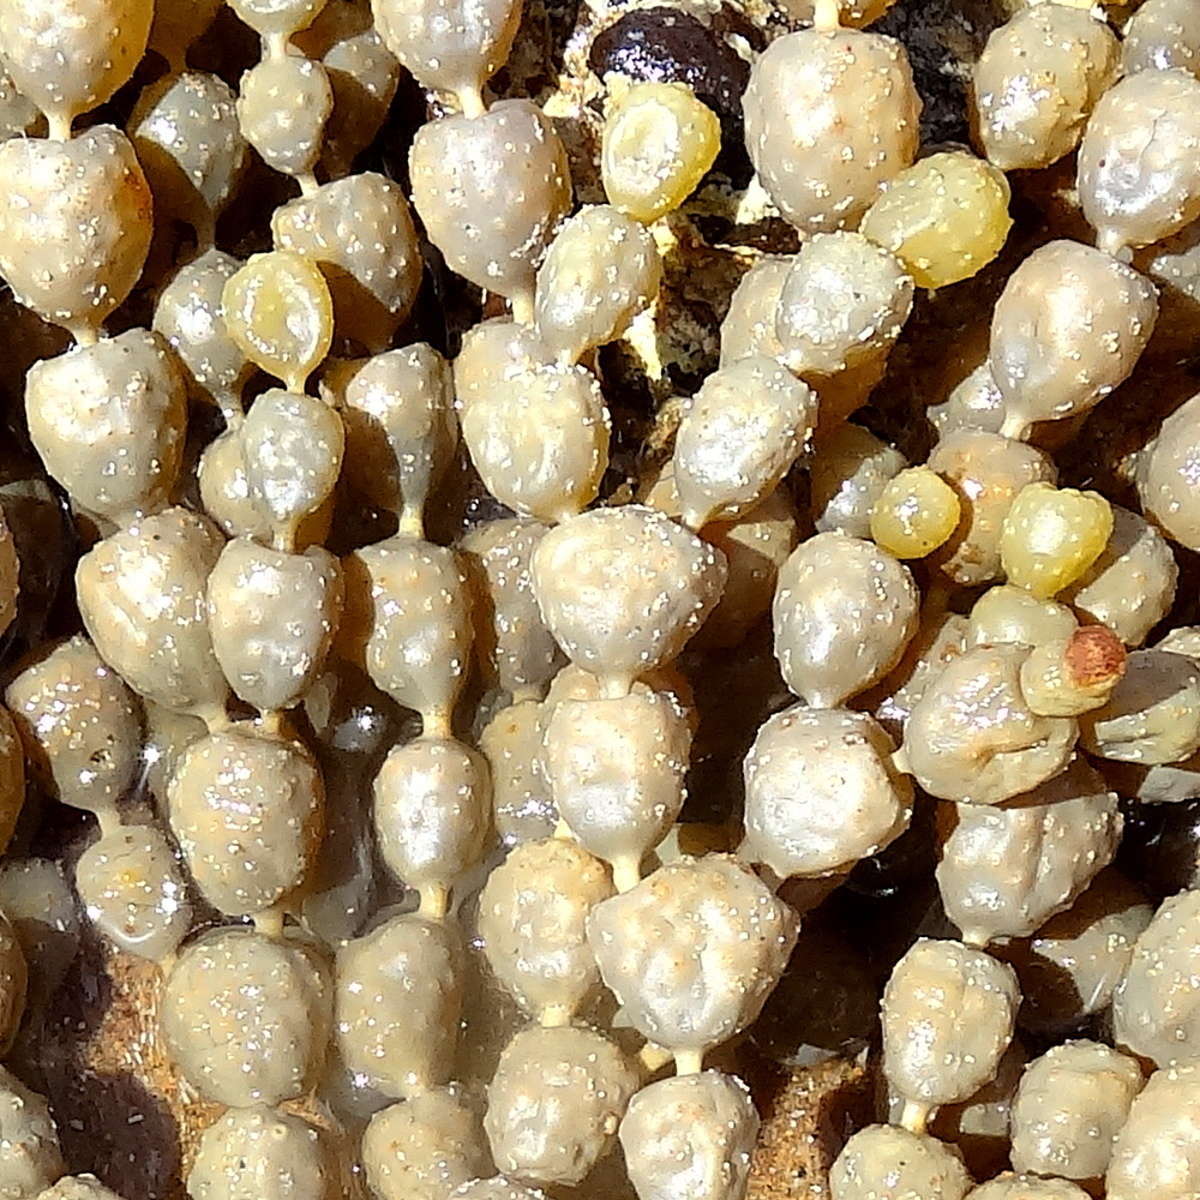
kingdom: Chromista
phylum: Ochrophyta
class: Phaeophyceae
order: Fucales
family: Hormosiraceae
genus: Hormosira
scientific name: Hormosira banksii
